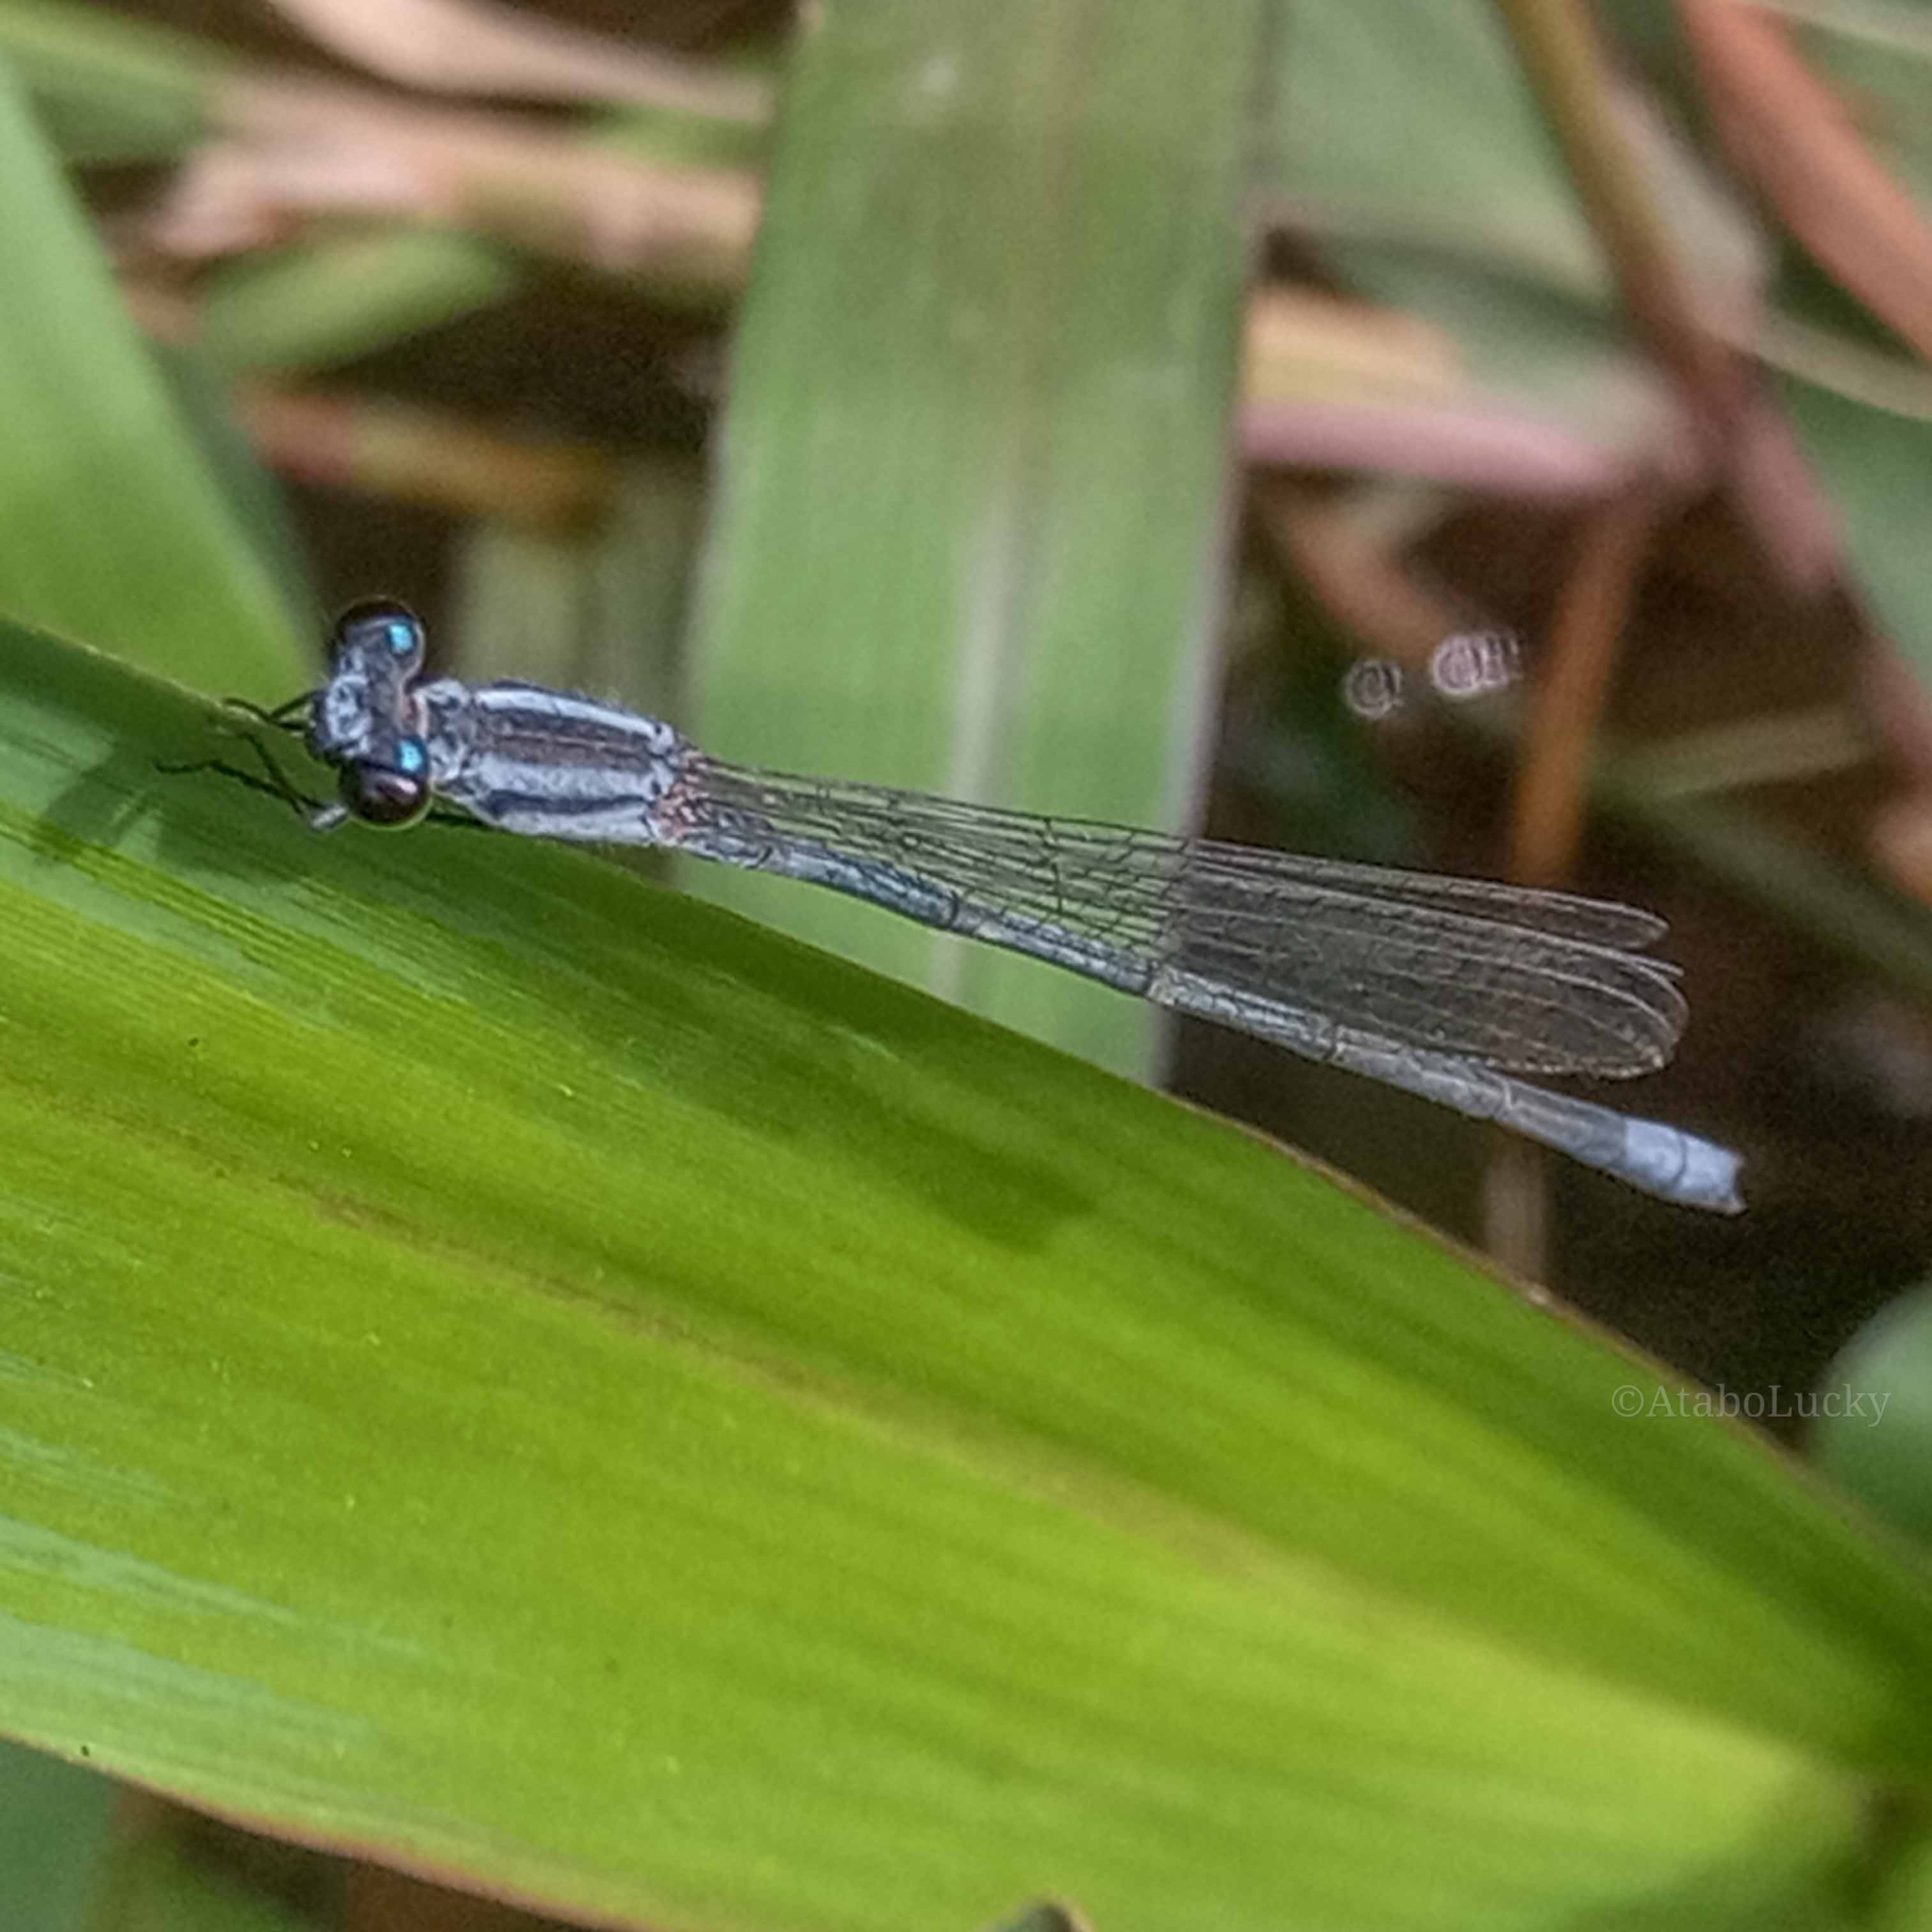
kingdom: Animalia
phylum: Arthropoda
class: Insecta
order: Odonata
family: Coenagrionidae
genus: Pseudagrion
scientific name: Pseudagrion kersteni
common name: Powder-faced sprite
